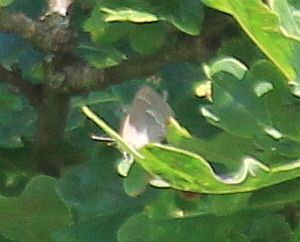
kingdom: Animalia
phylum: Arthropoda
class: Insecta
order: Lepidoptera
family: Lycaenidae
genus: Quercusia
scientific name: Quercusia quercus
